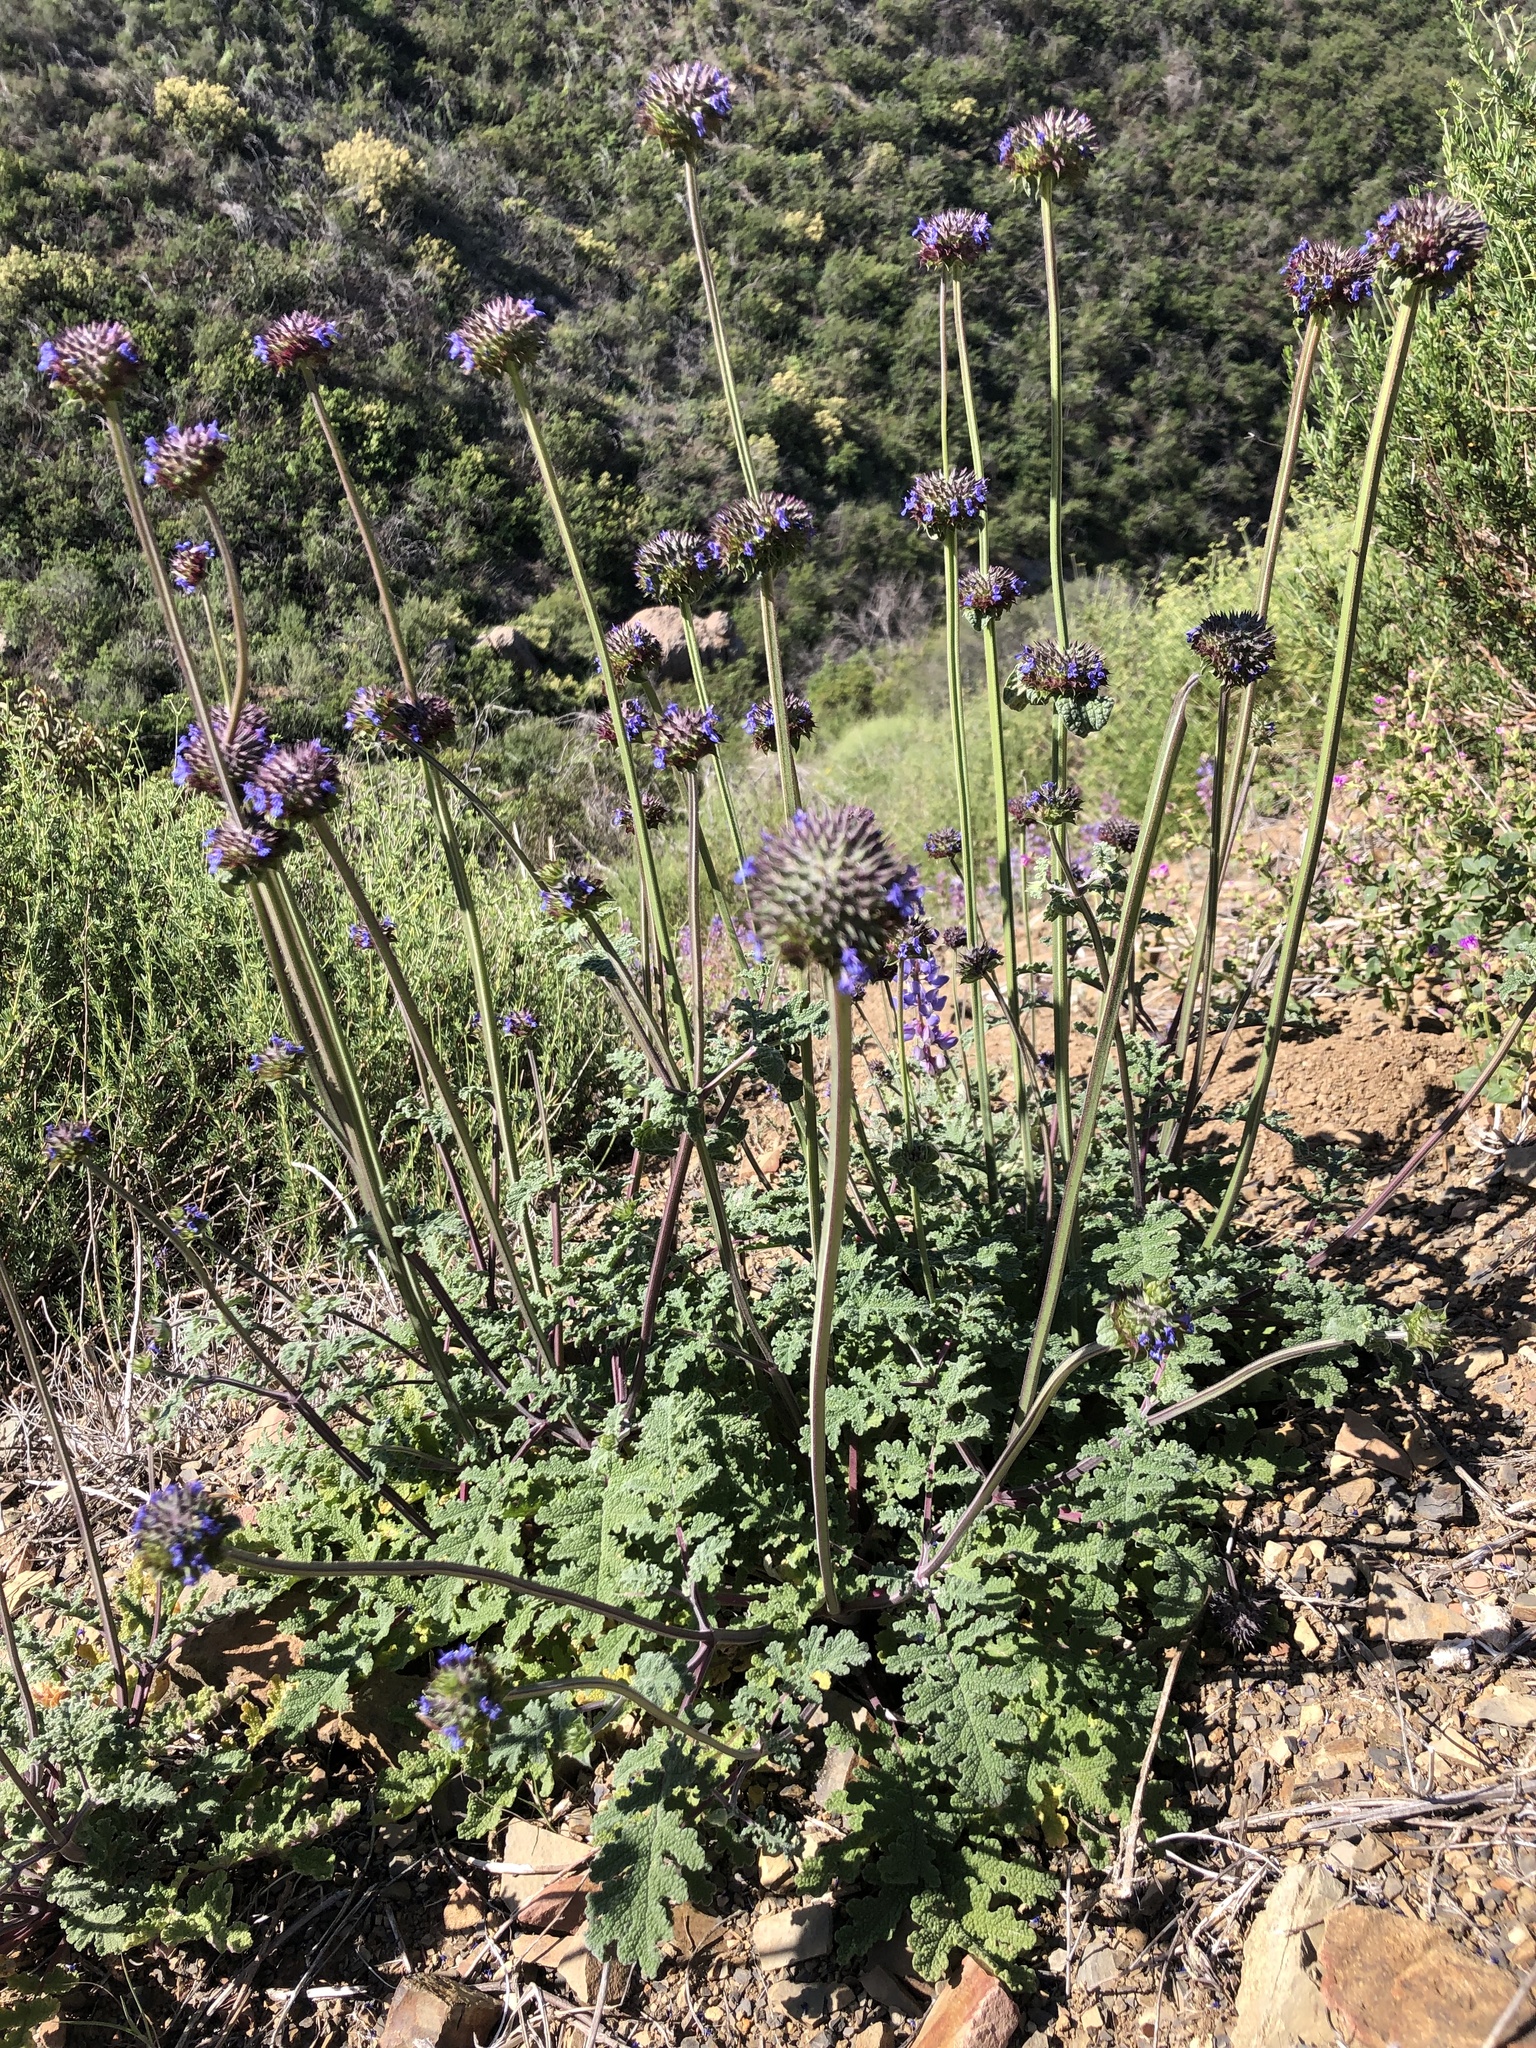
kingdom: Plantae
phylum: Tracheophyta
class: Magnoliopsida
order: Lamiales
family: Lamiaceae
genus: Salvia
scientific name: Salvia columbariae
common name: Chia
